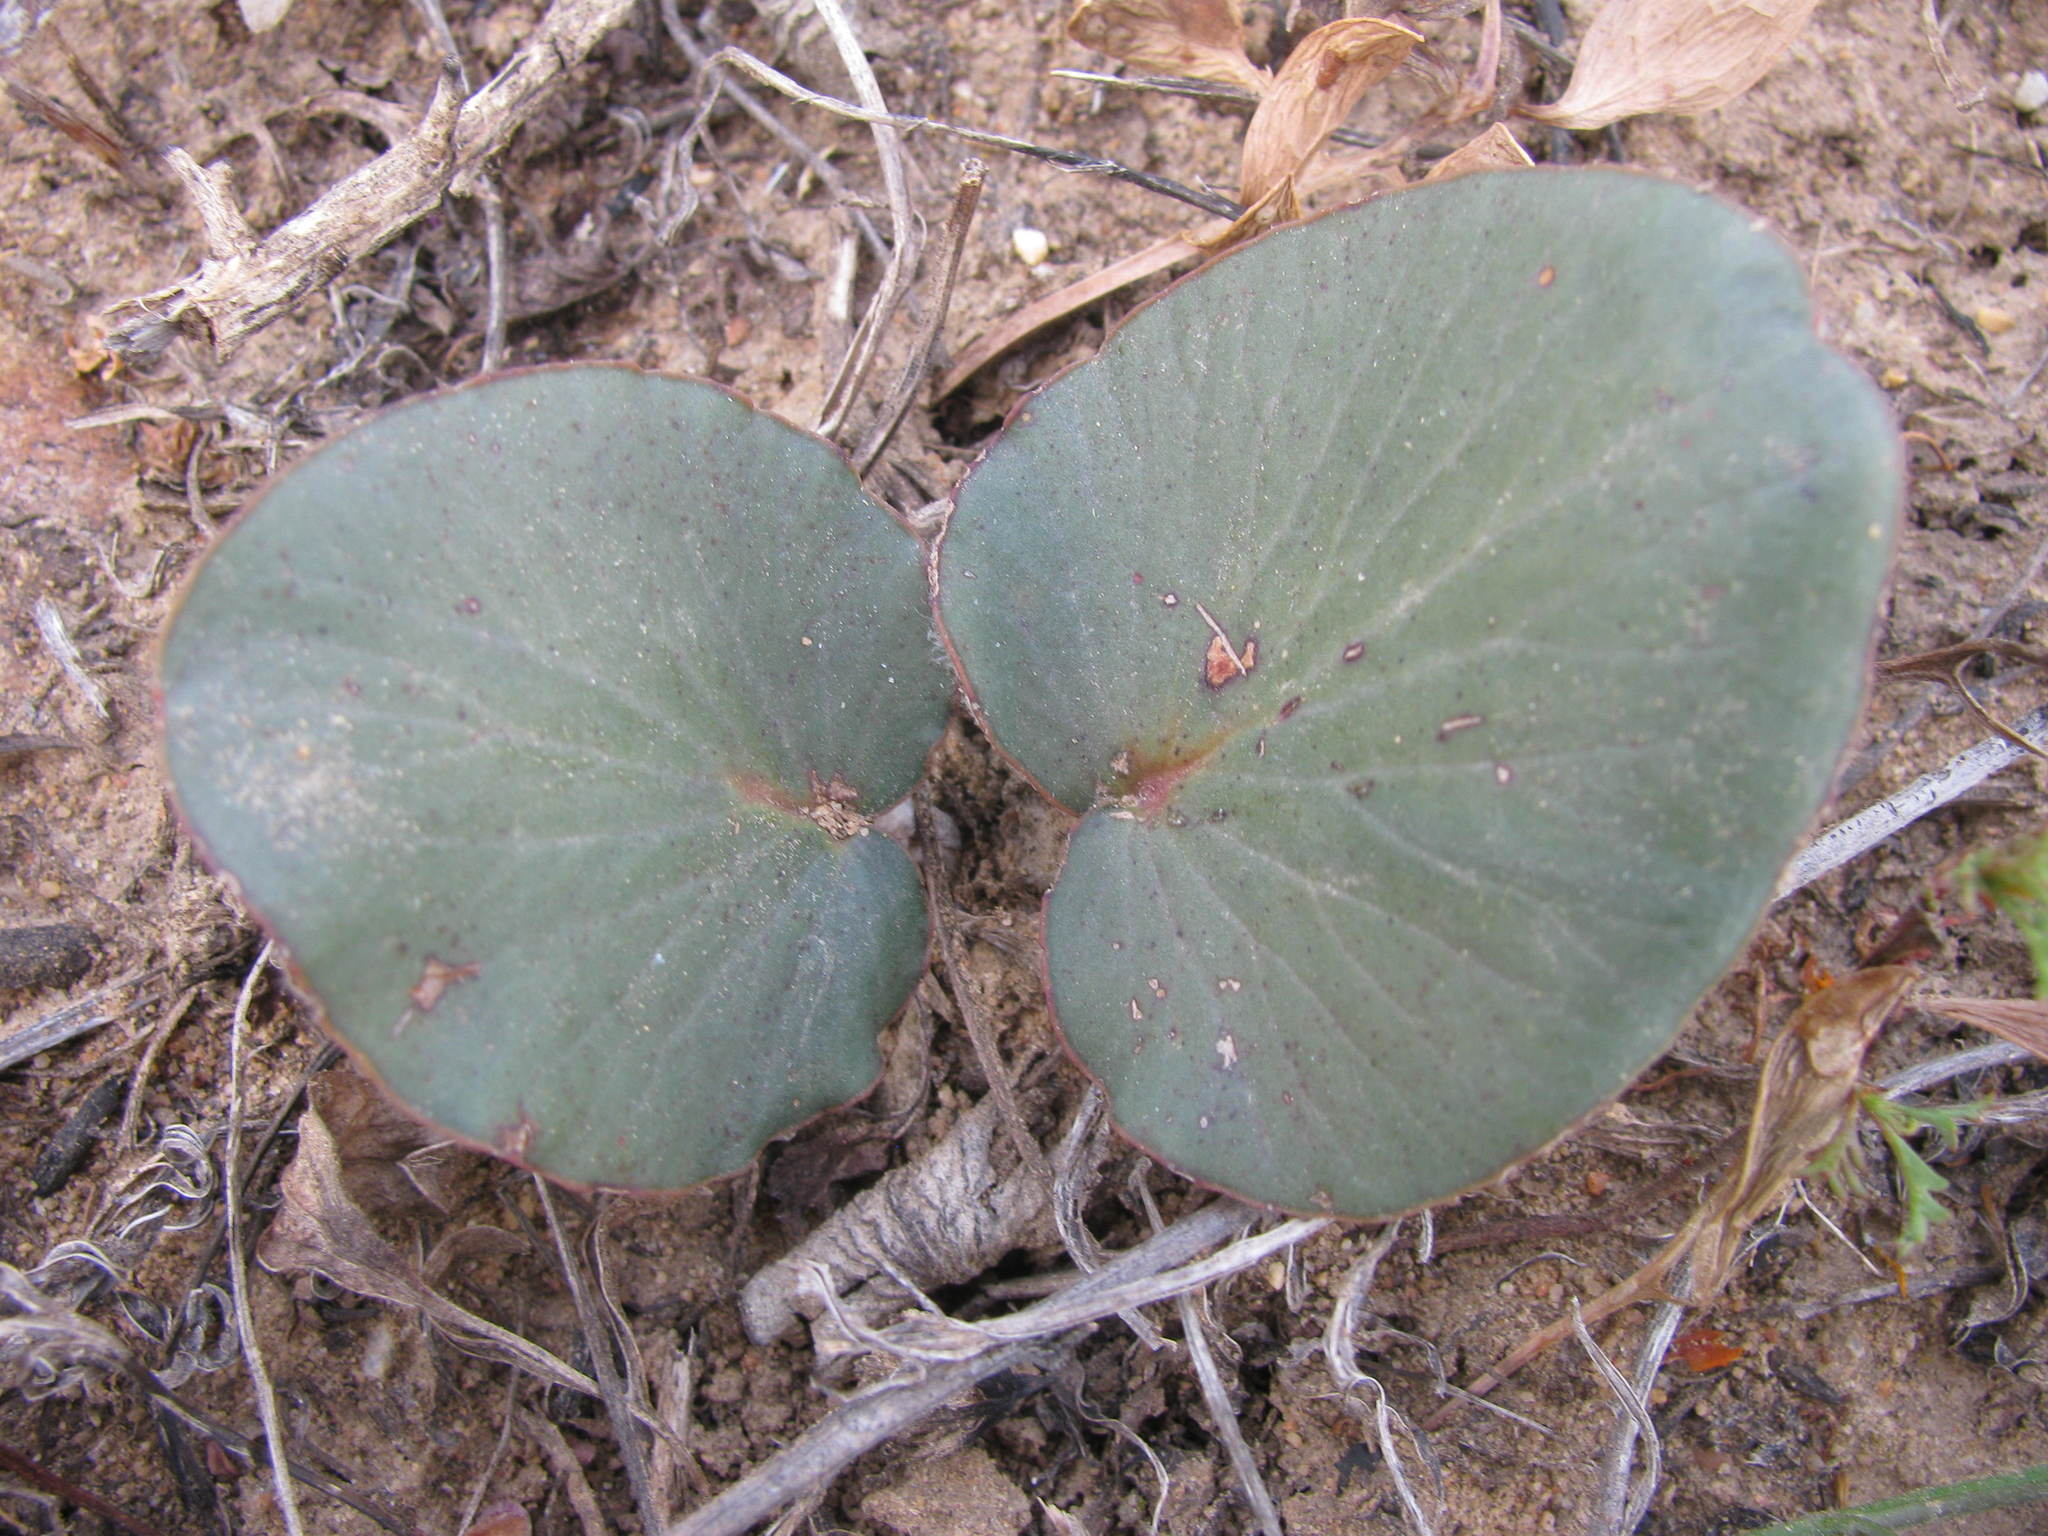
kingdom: Plantae
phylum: Tracheophyta
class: Magnoliopsida
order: Geraniales
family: Geraniaceae
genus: Pelargonium
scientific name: Pelargonium asarifolium
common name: Asarum-leaf pelargonium
